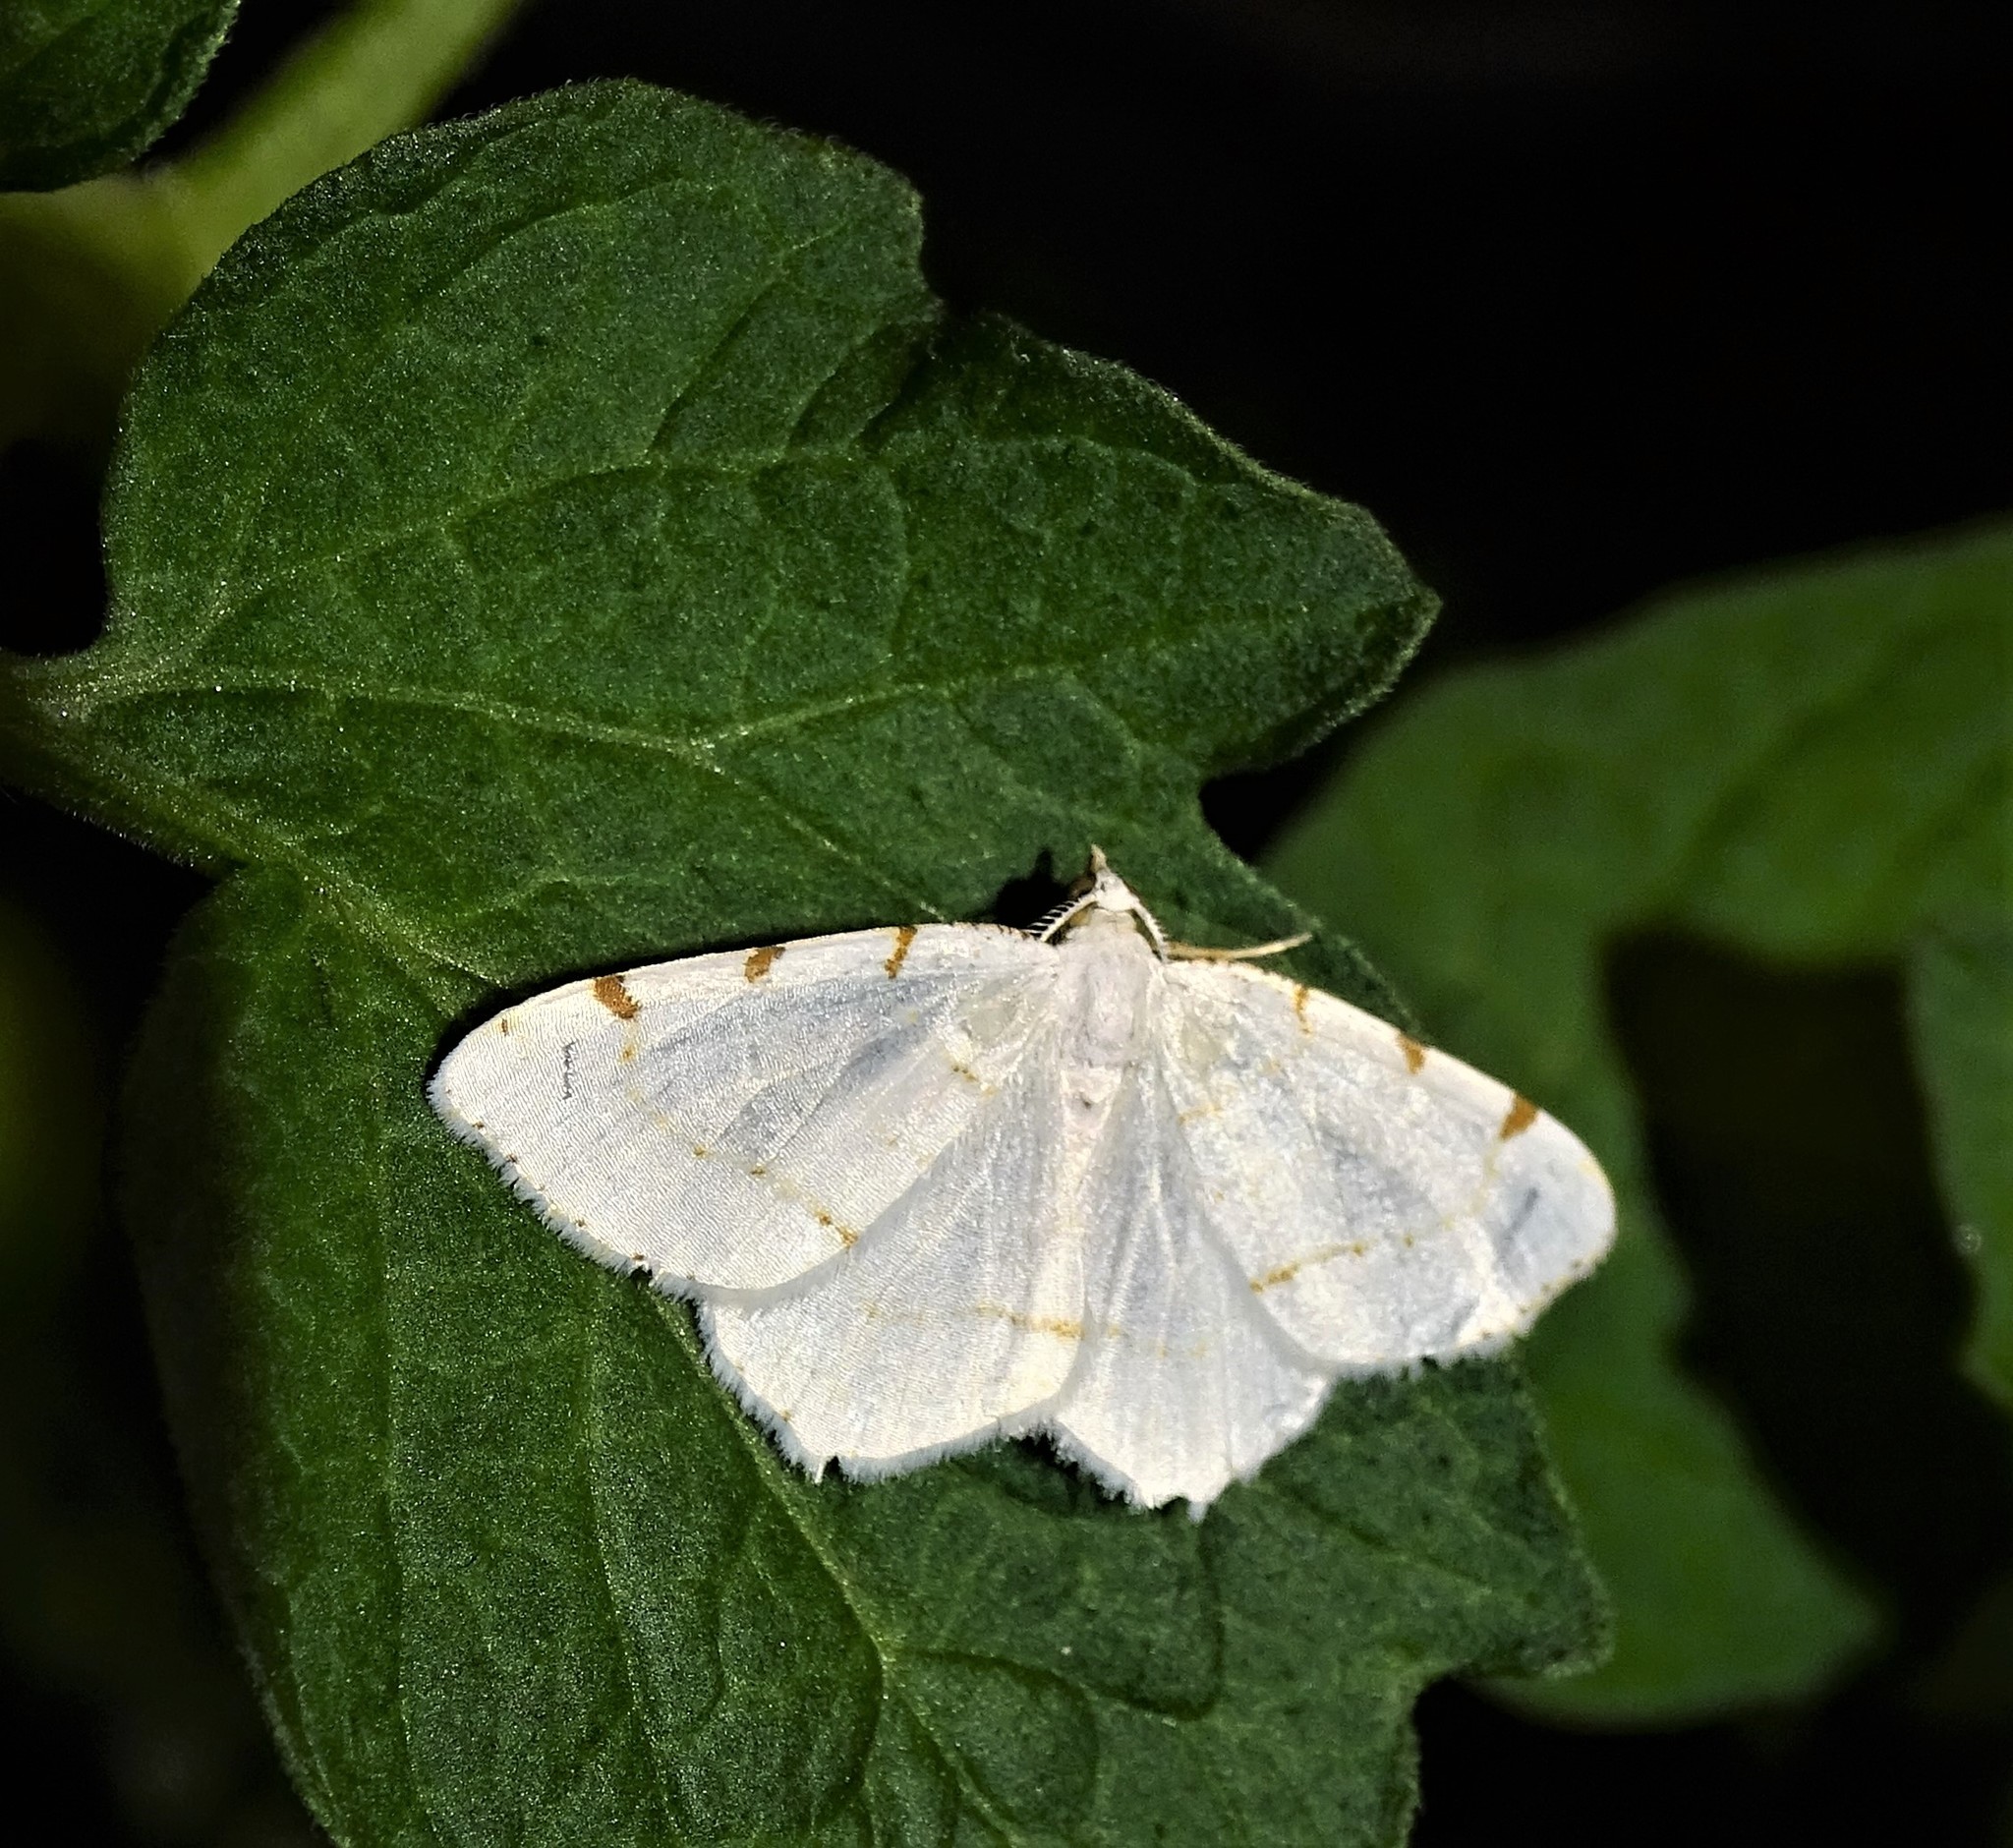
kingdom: Animalia
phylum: Arthropoda
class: Insecta
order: Lepidoptera
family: Geometridae
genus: Macaria
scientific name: Macaria pustularia
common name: Lesser maple spanworm moth
